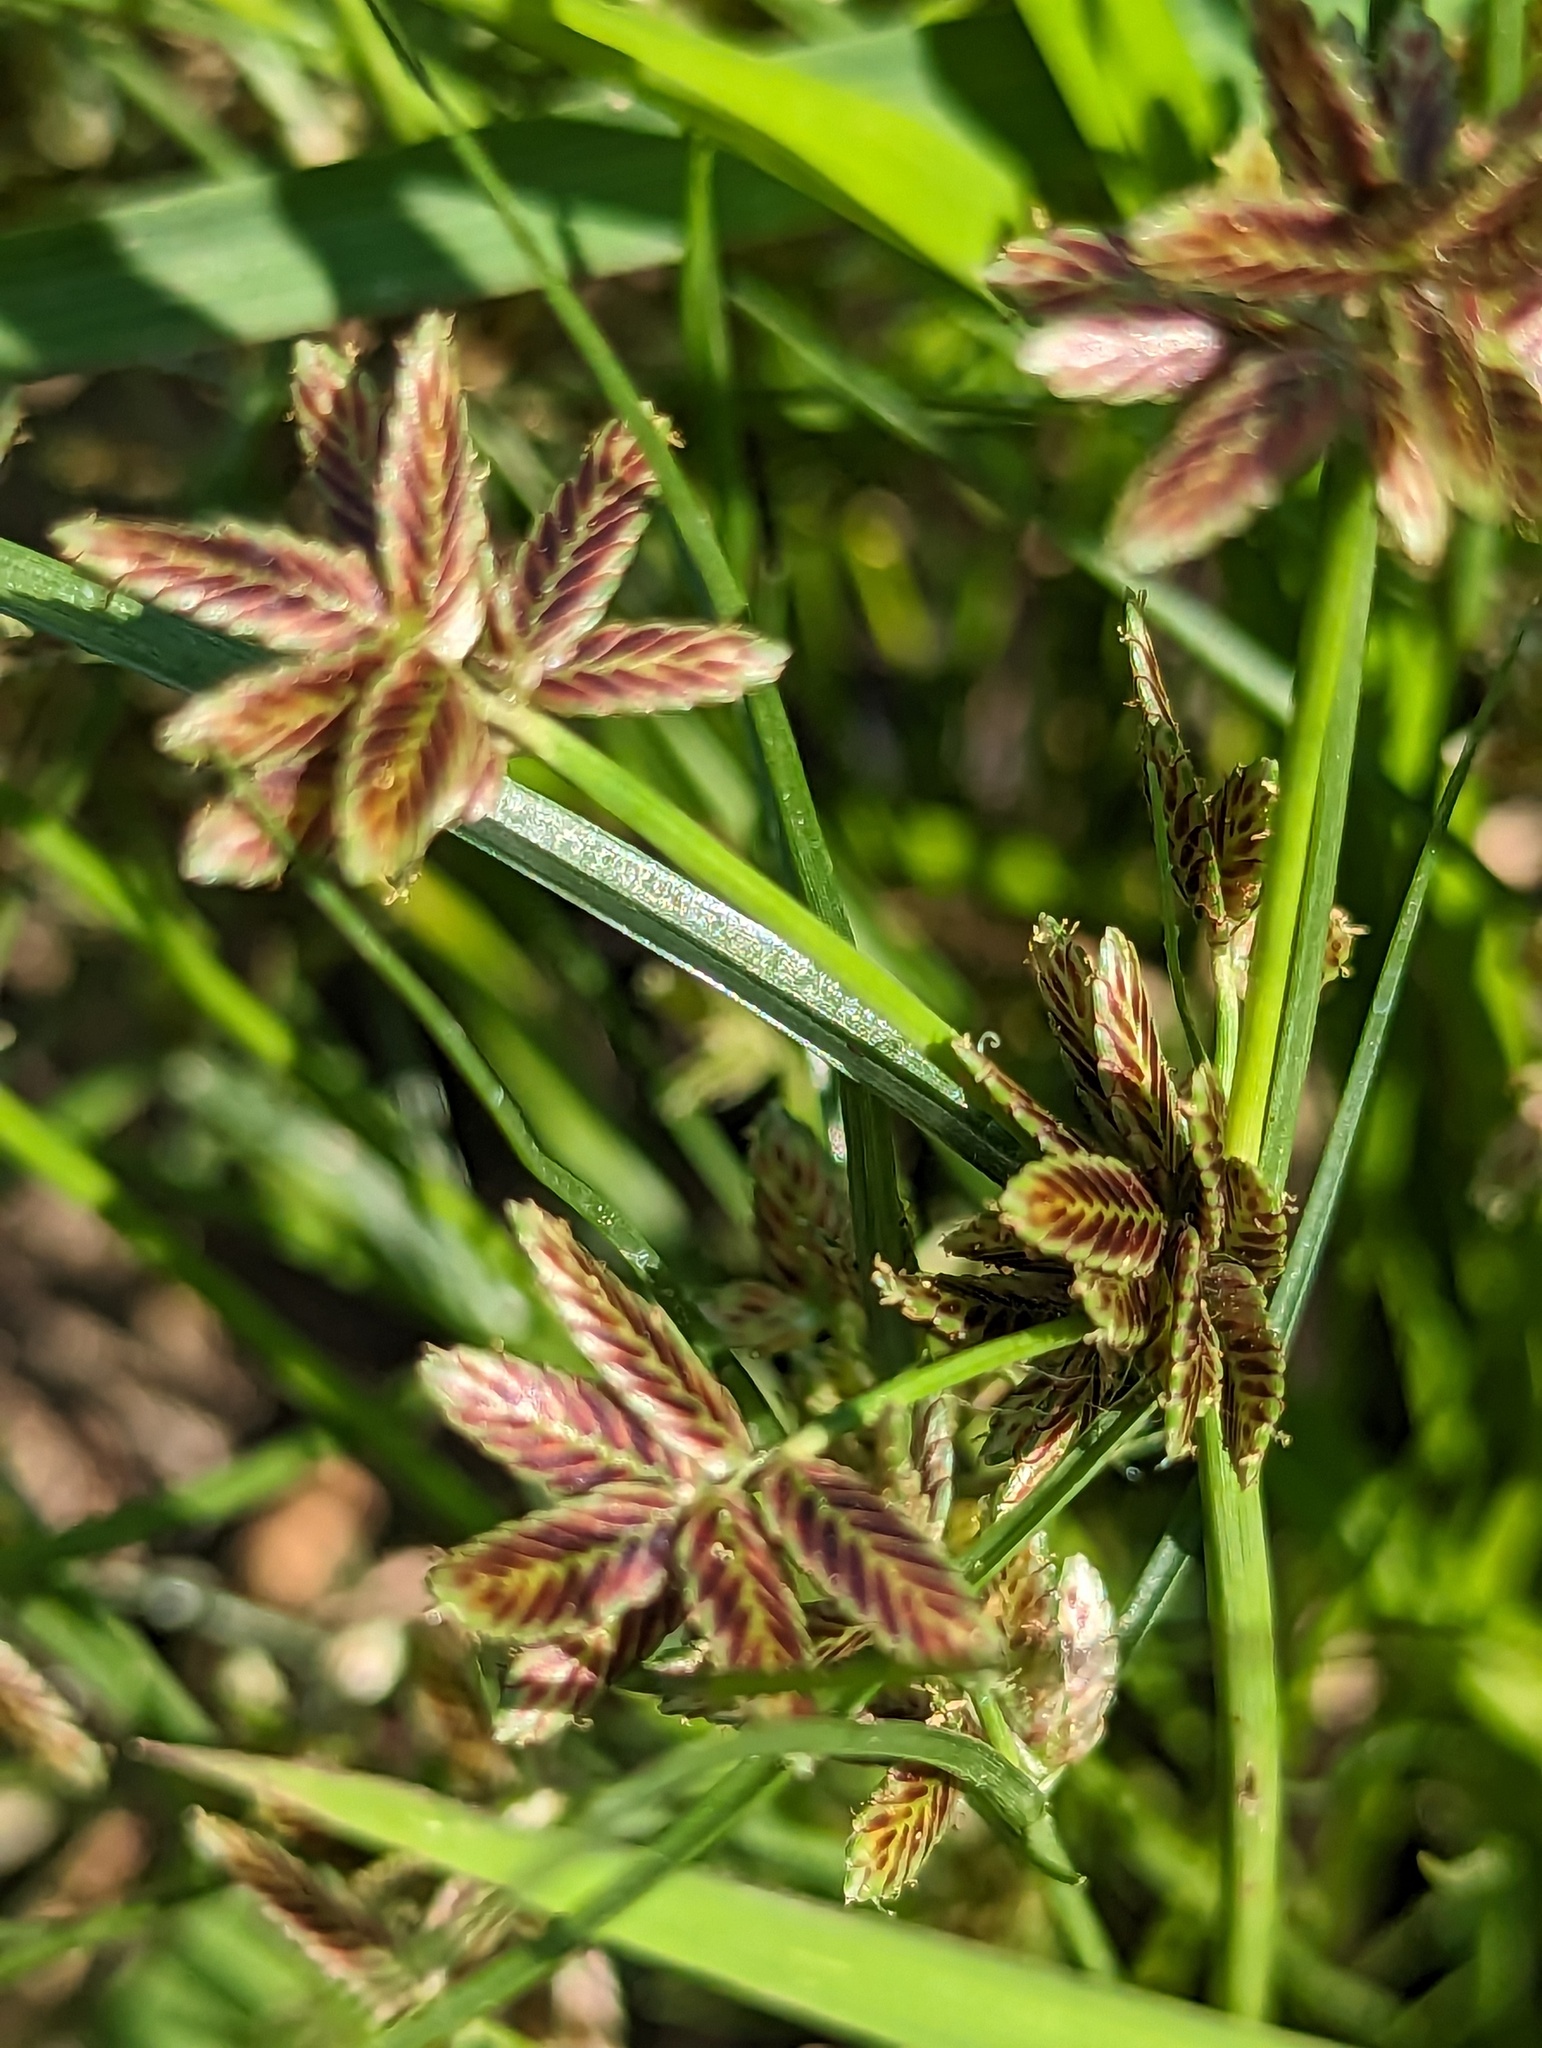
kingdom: Plantae
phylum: Tracheophyta
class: Liliopsida
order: Poales
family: Cyperaceae
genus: Cyperus
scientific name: Cyperus bipartitus
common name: Brook flatsedge
